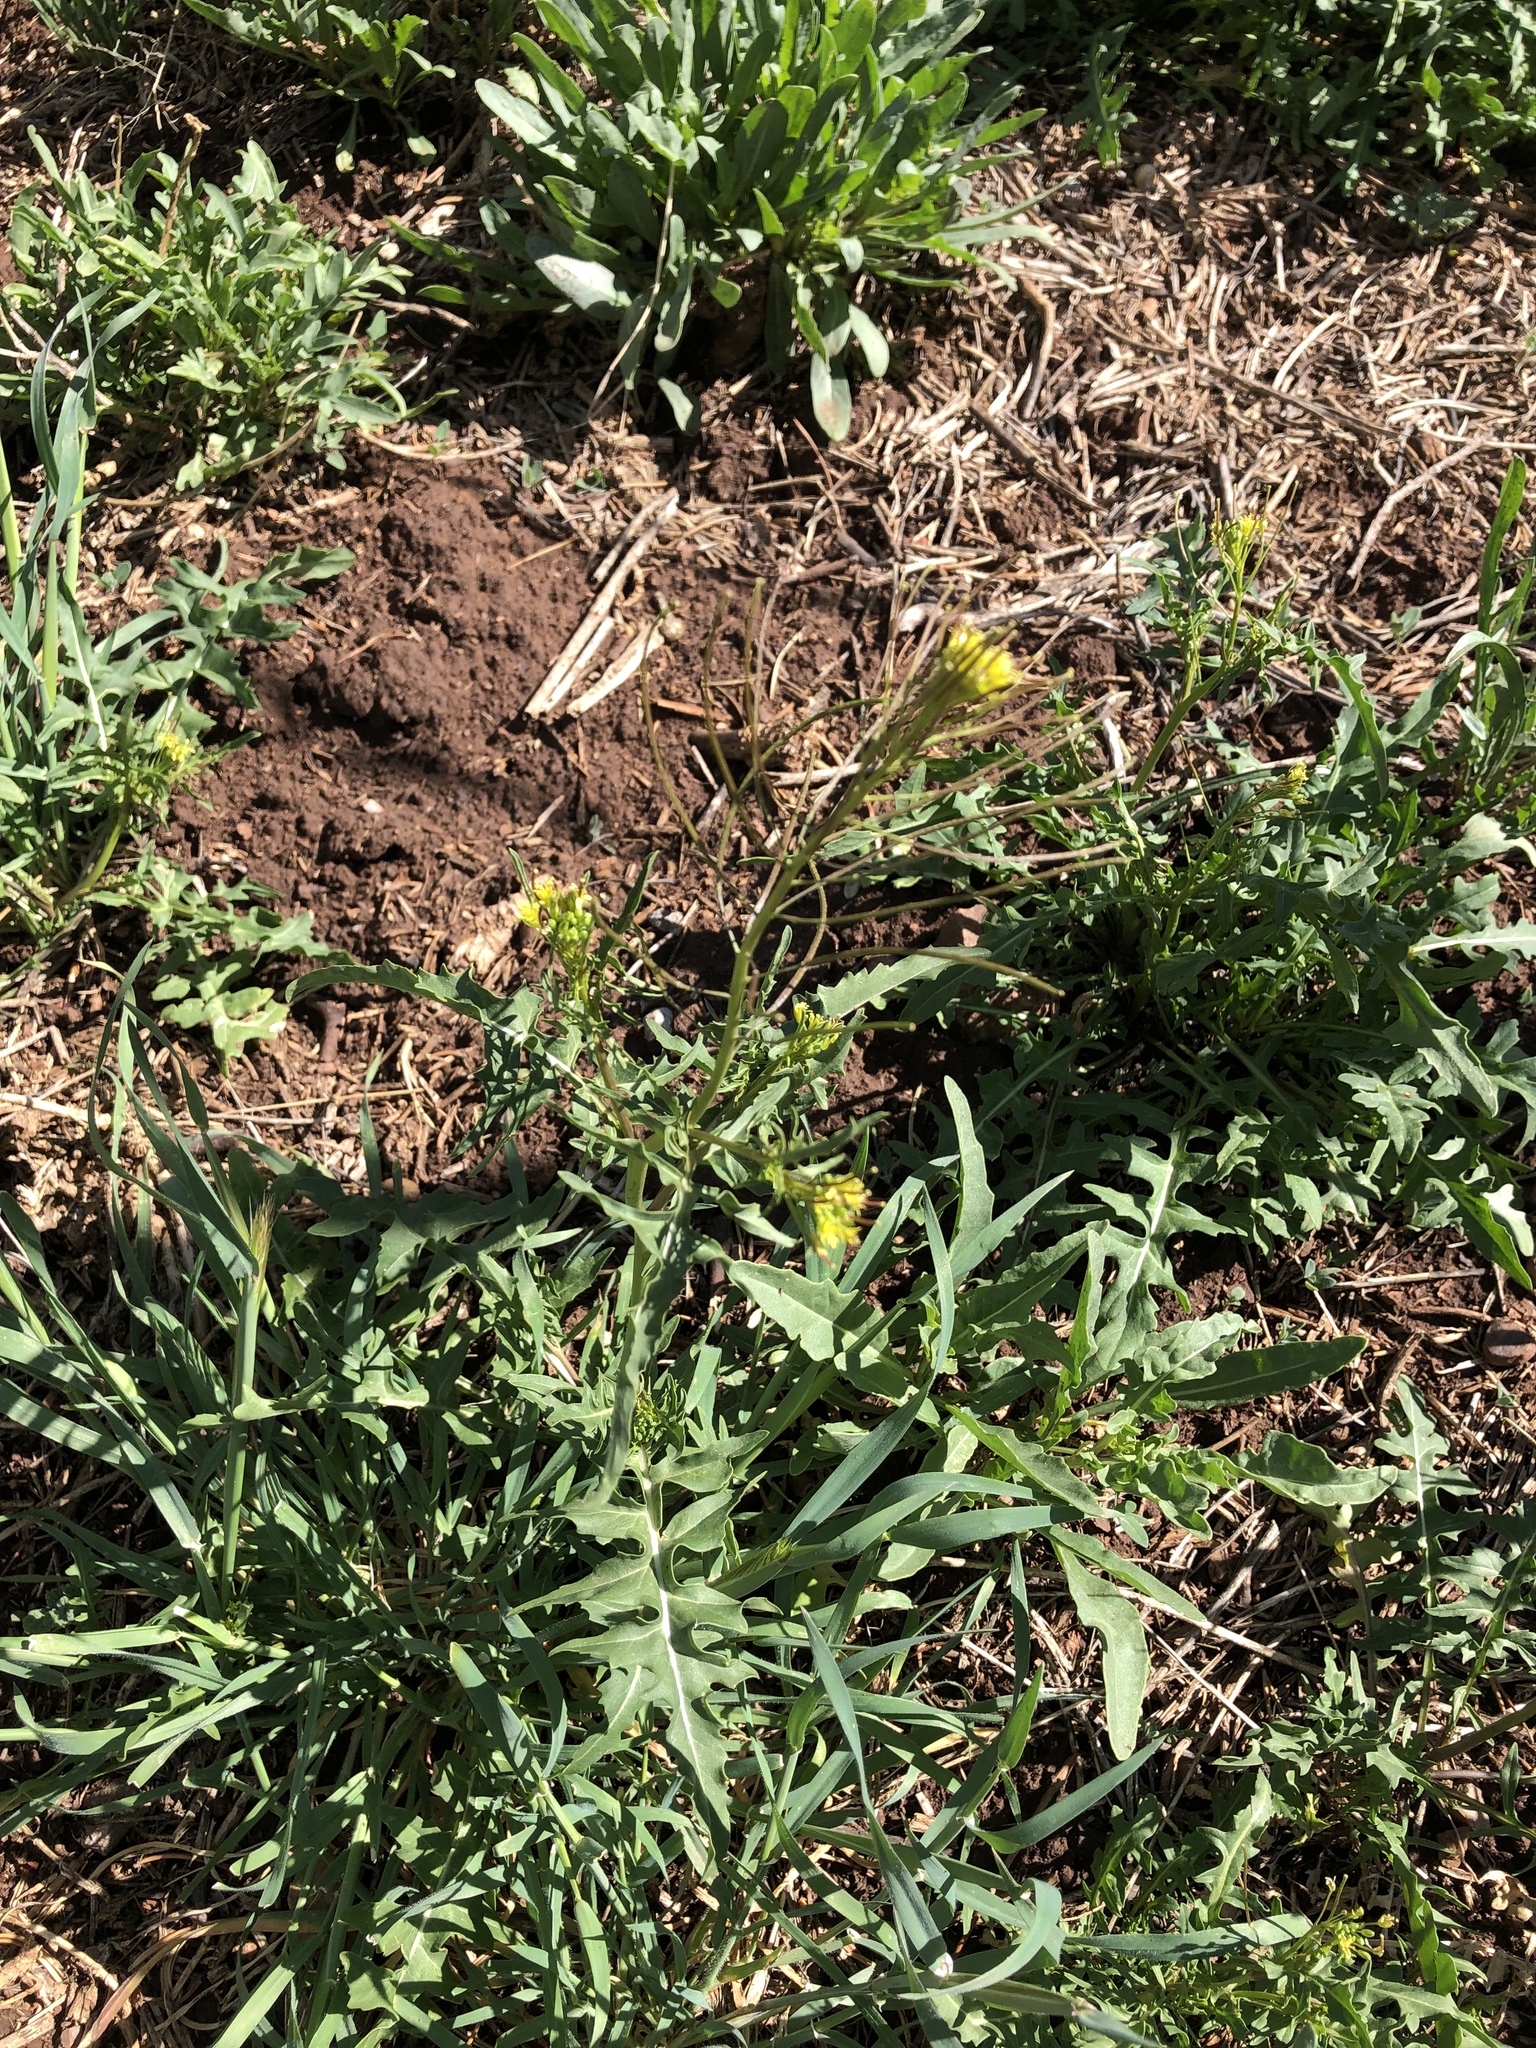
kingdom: Plantae
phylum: Tracheophyta
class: Magnoliopsida
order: Brassicales
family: Brassicaceae
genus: Sisymbrium
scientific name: Sisymbrium irio
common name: London rocket
